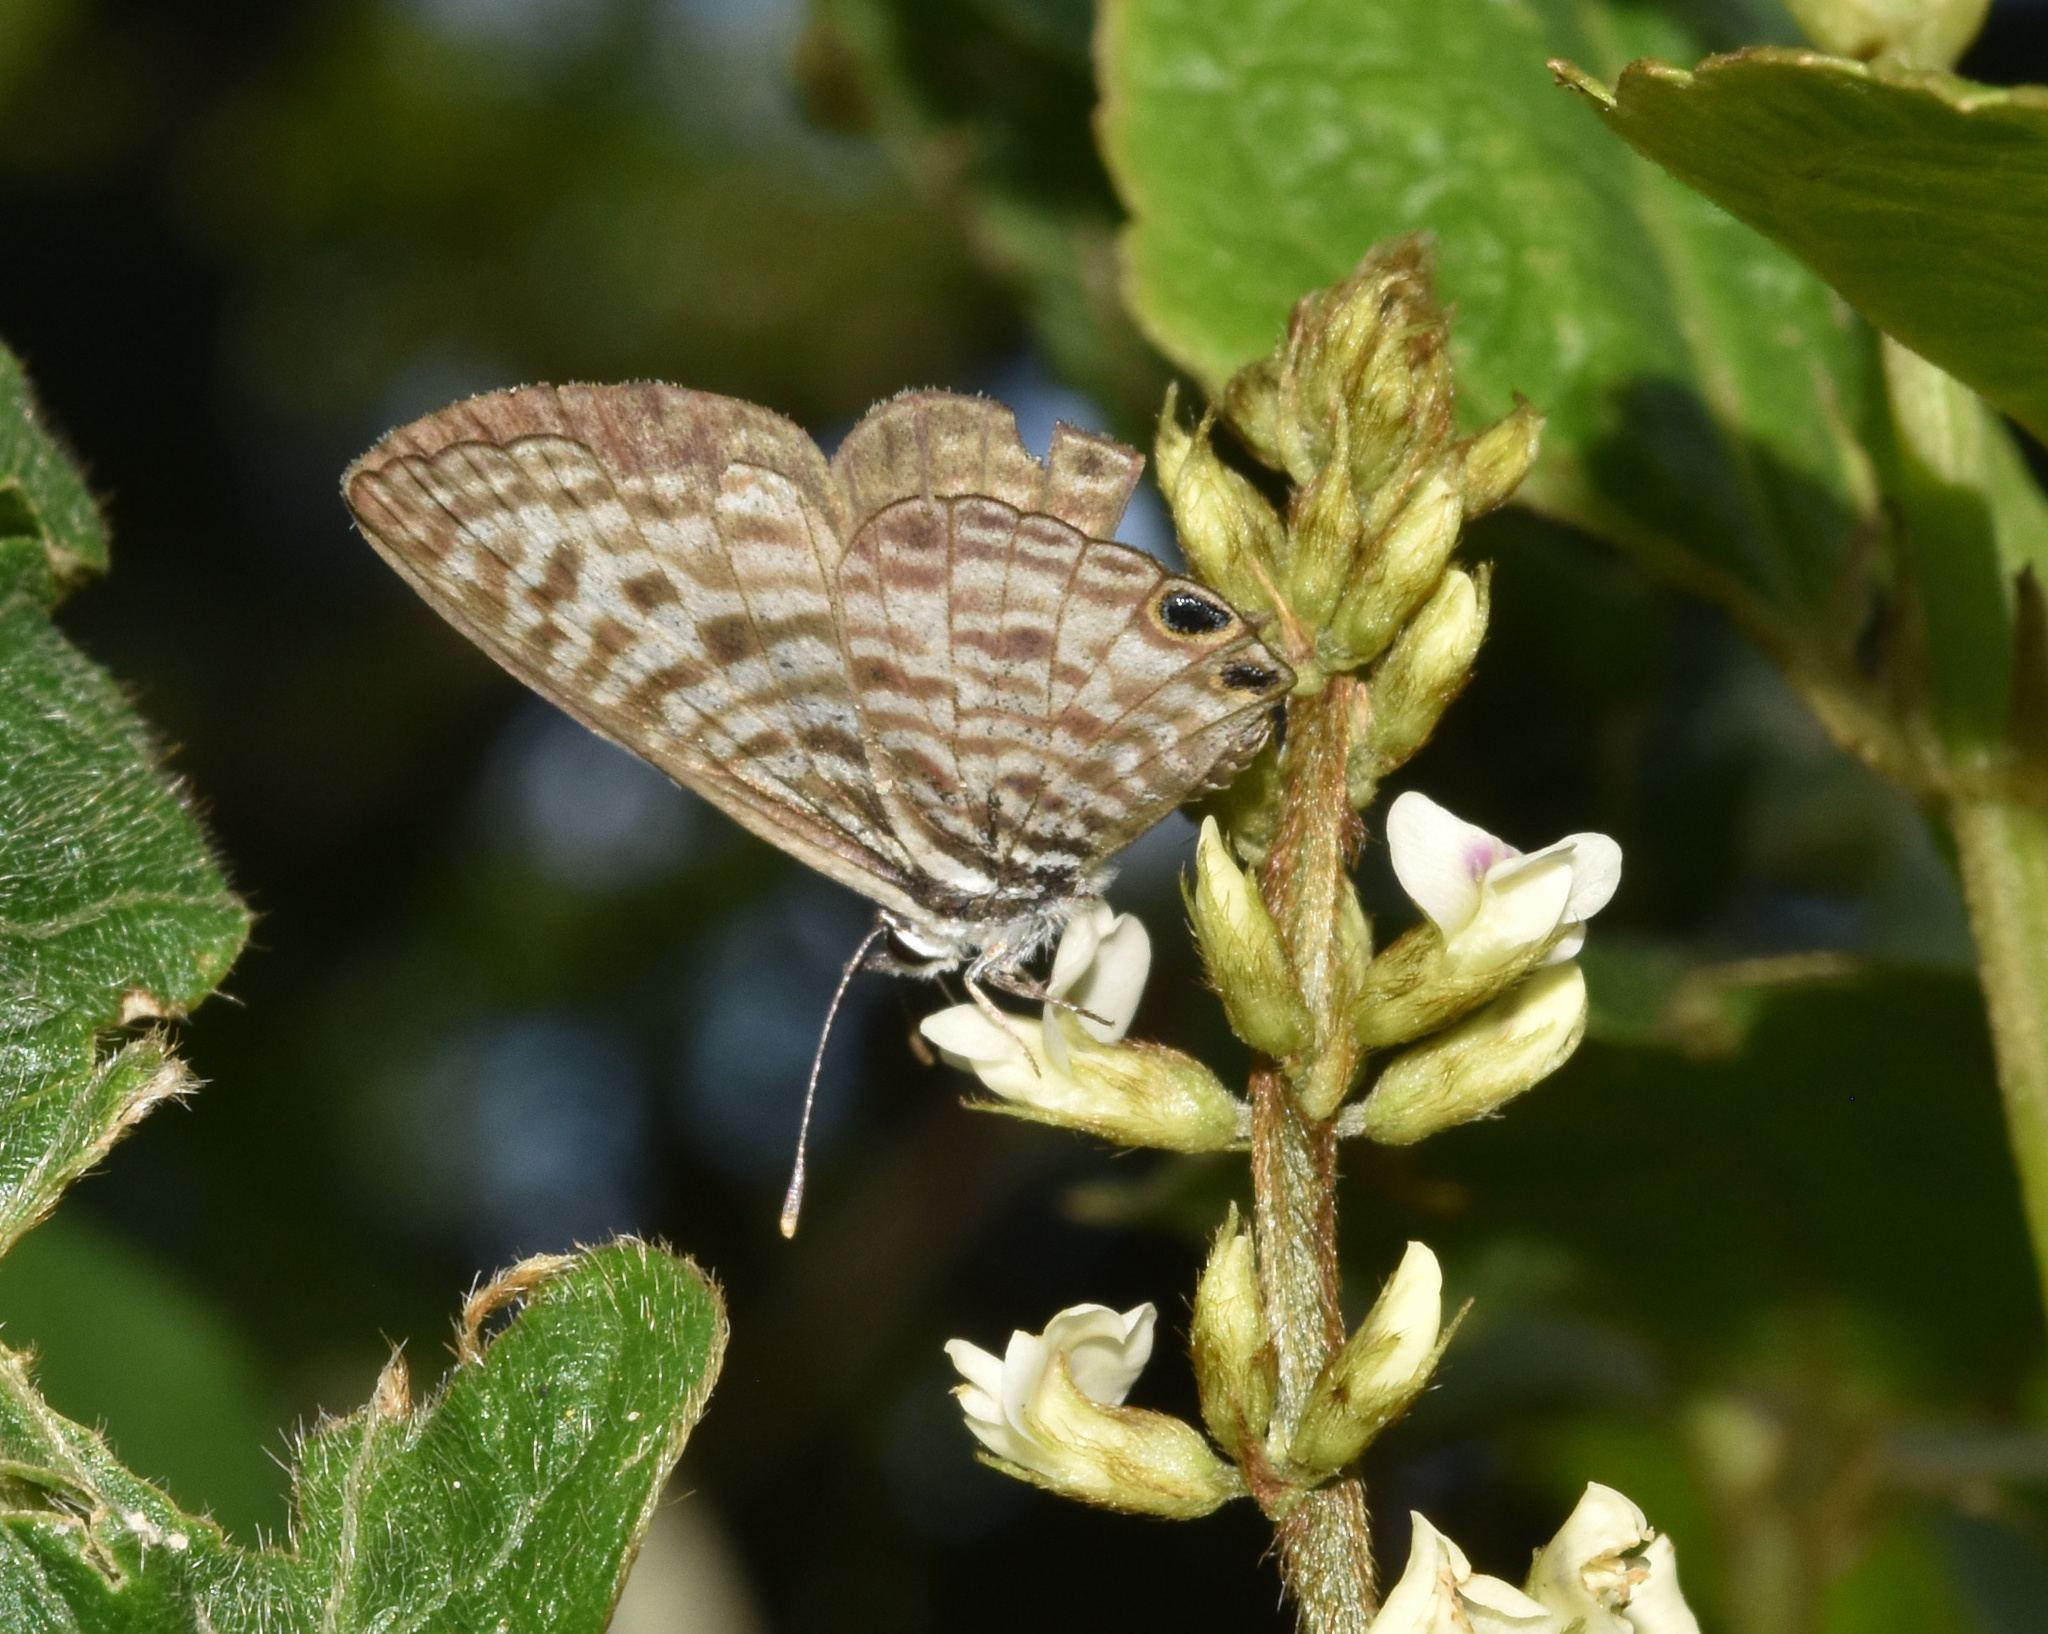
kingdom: Animalia
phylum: Arthropoda
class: Insecta
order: Lepidoptera
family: Lycaenidae
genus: Leptotes
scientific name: Leptotes
